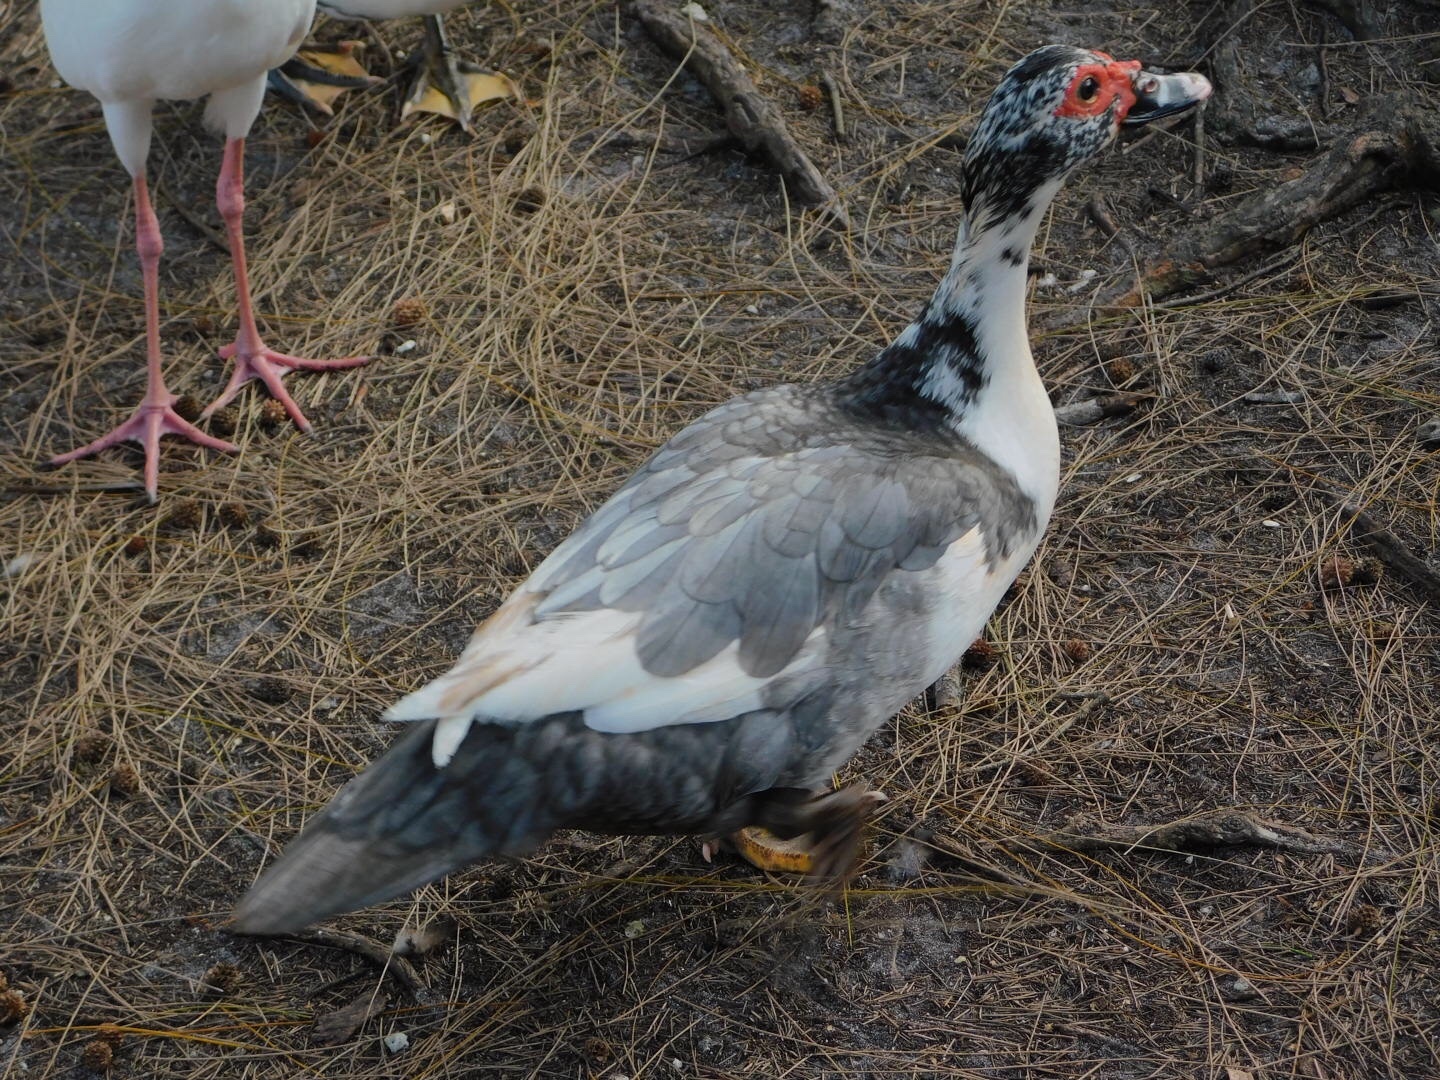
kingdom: Animalia
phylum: Chordata
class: Aves
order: Anseriformes
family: Anatidae
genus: Cairina
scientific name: Cairina moschata
